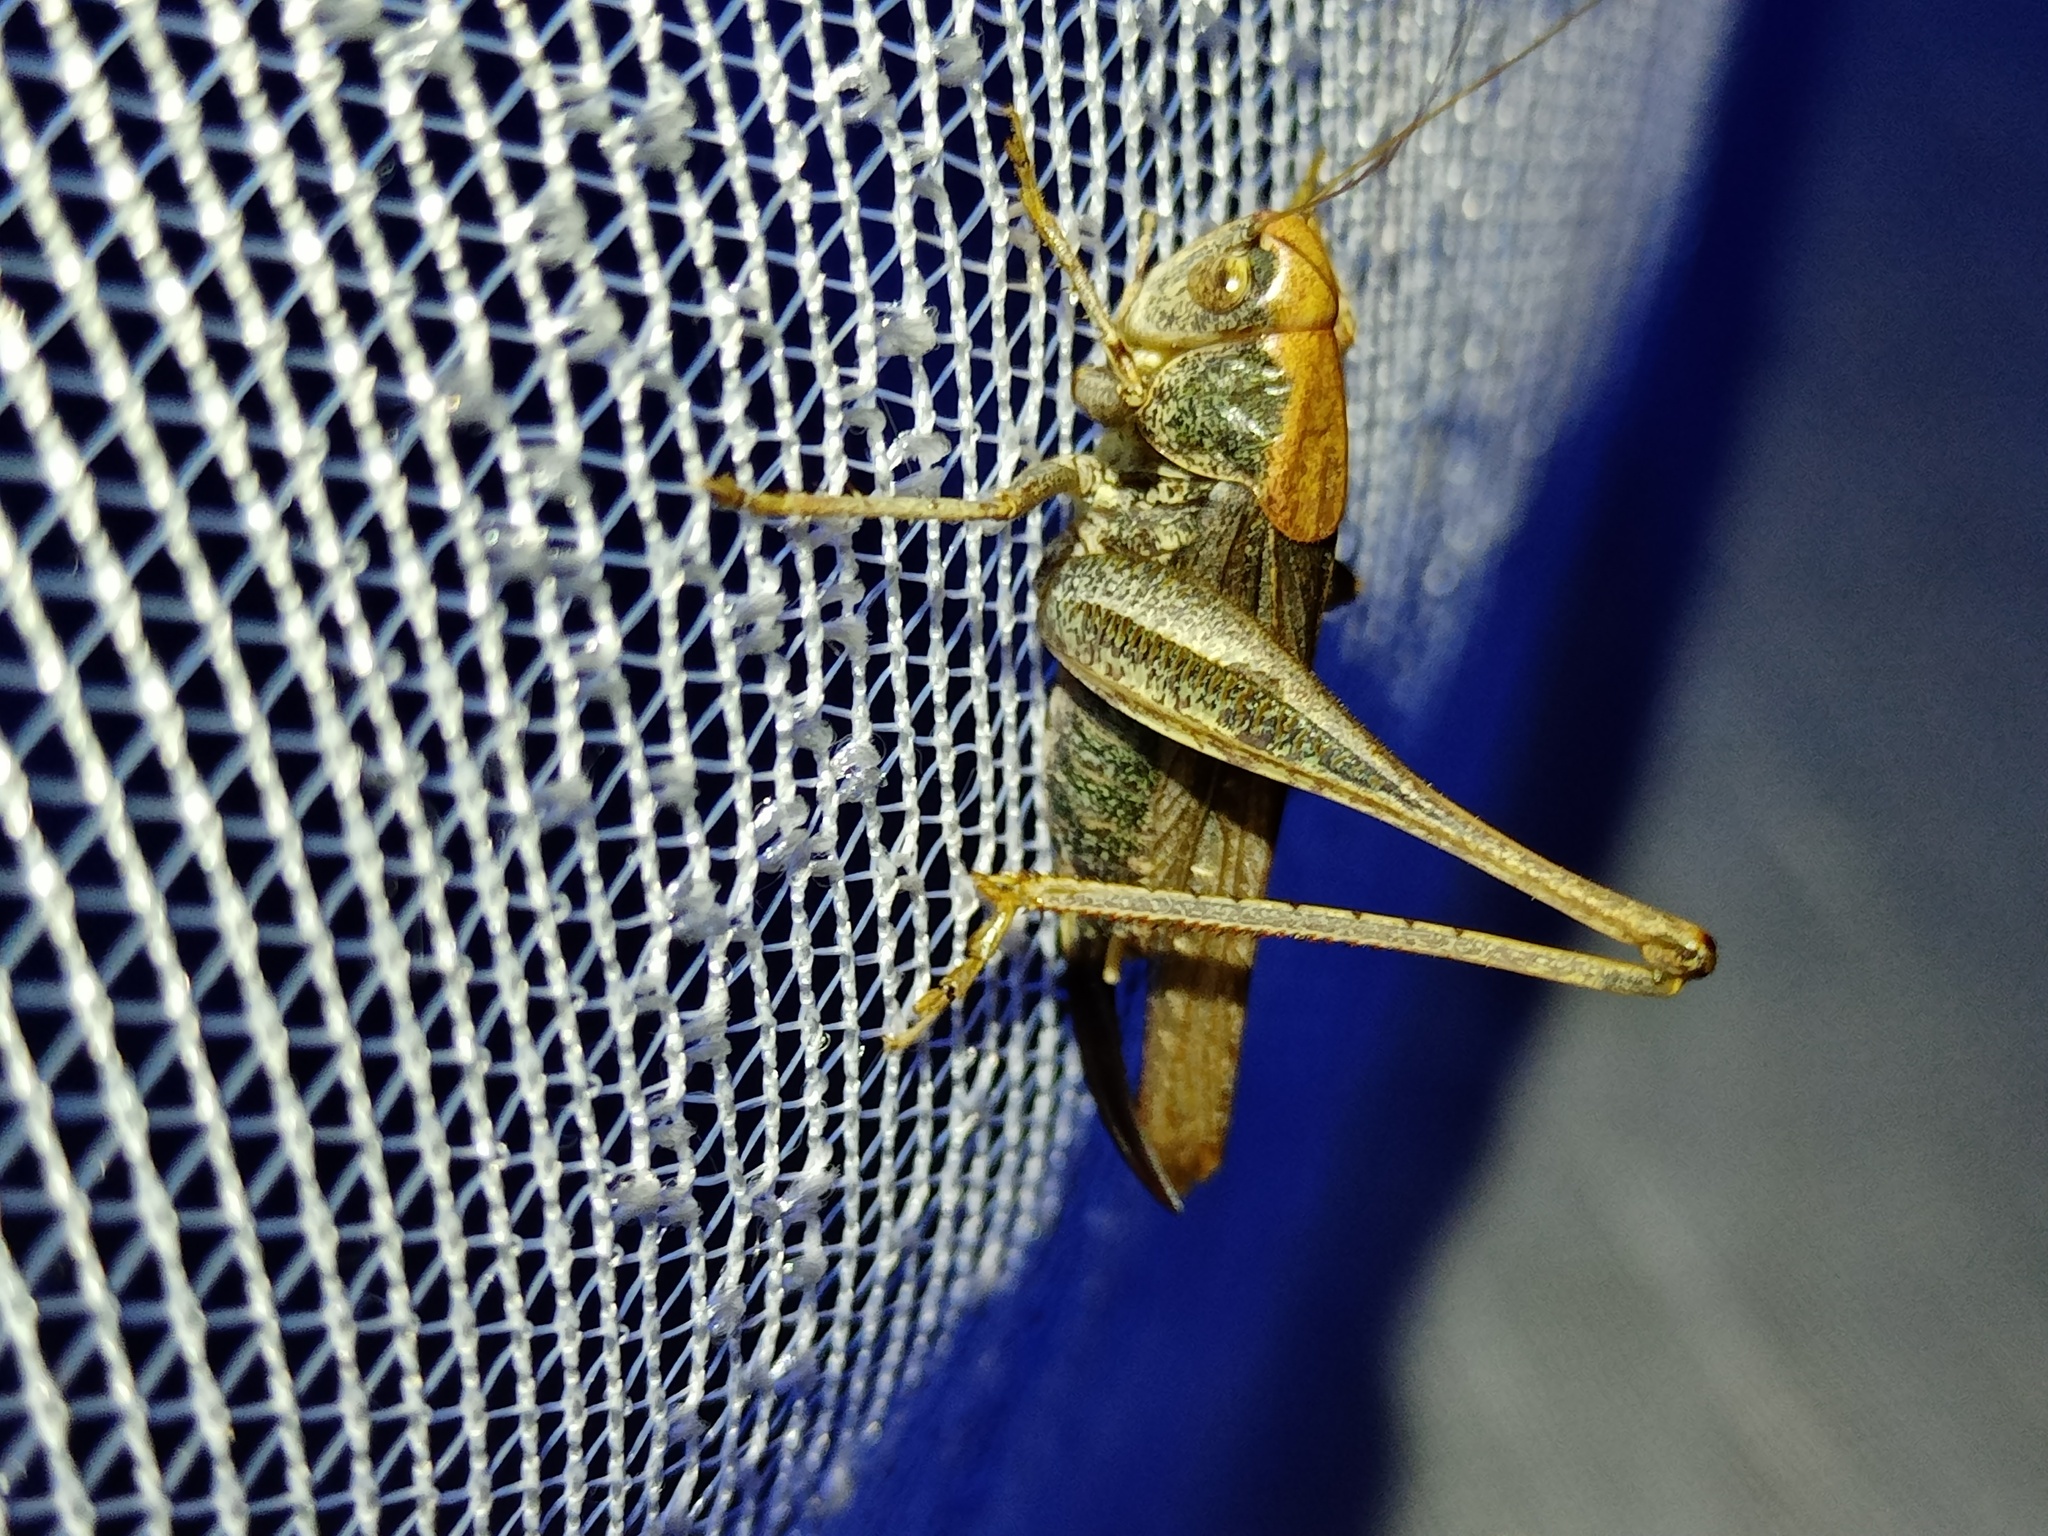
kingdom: Animalia
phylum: Arthropoda
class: Insecta
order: Orthoptera
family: Tettigoniidae
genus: Platycleis
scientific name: Platycleis albopunctata
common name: Grey bush-cricket
